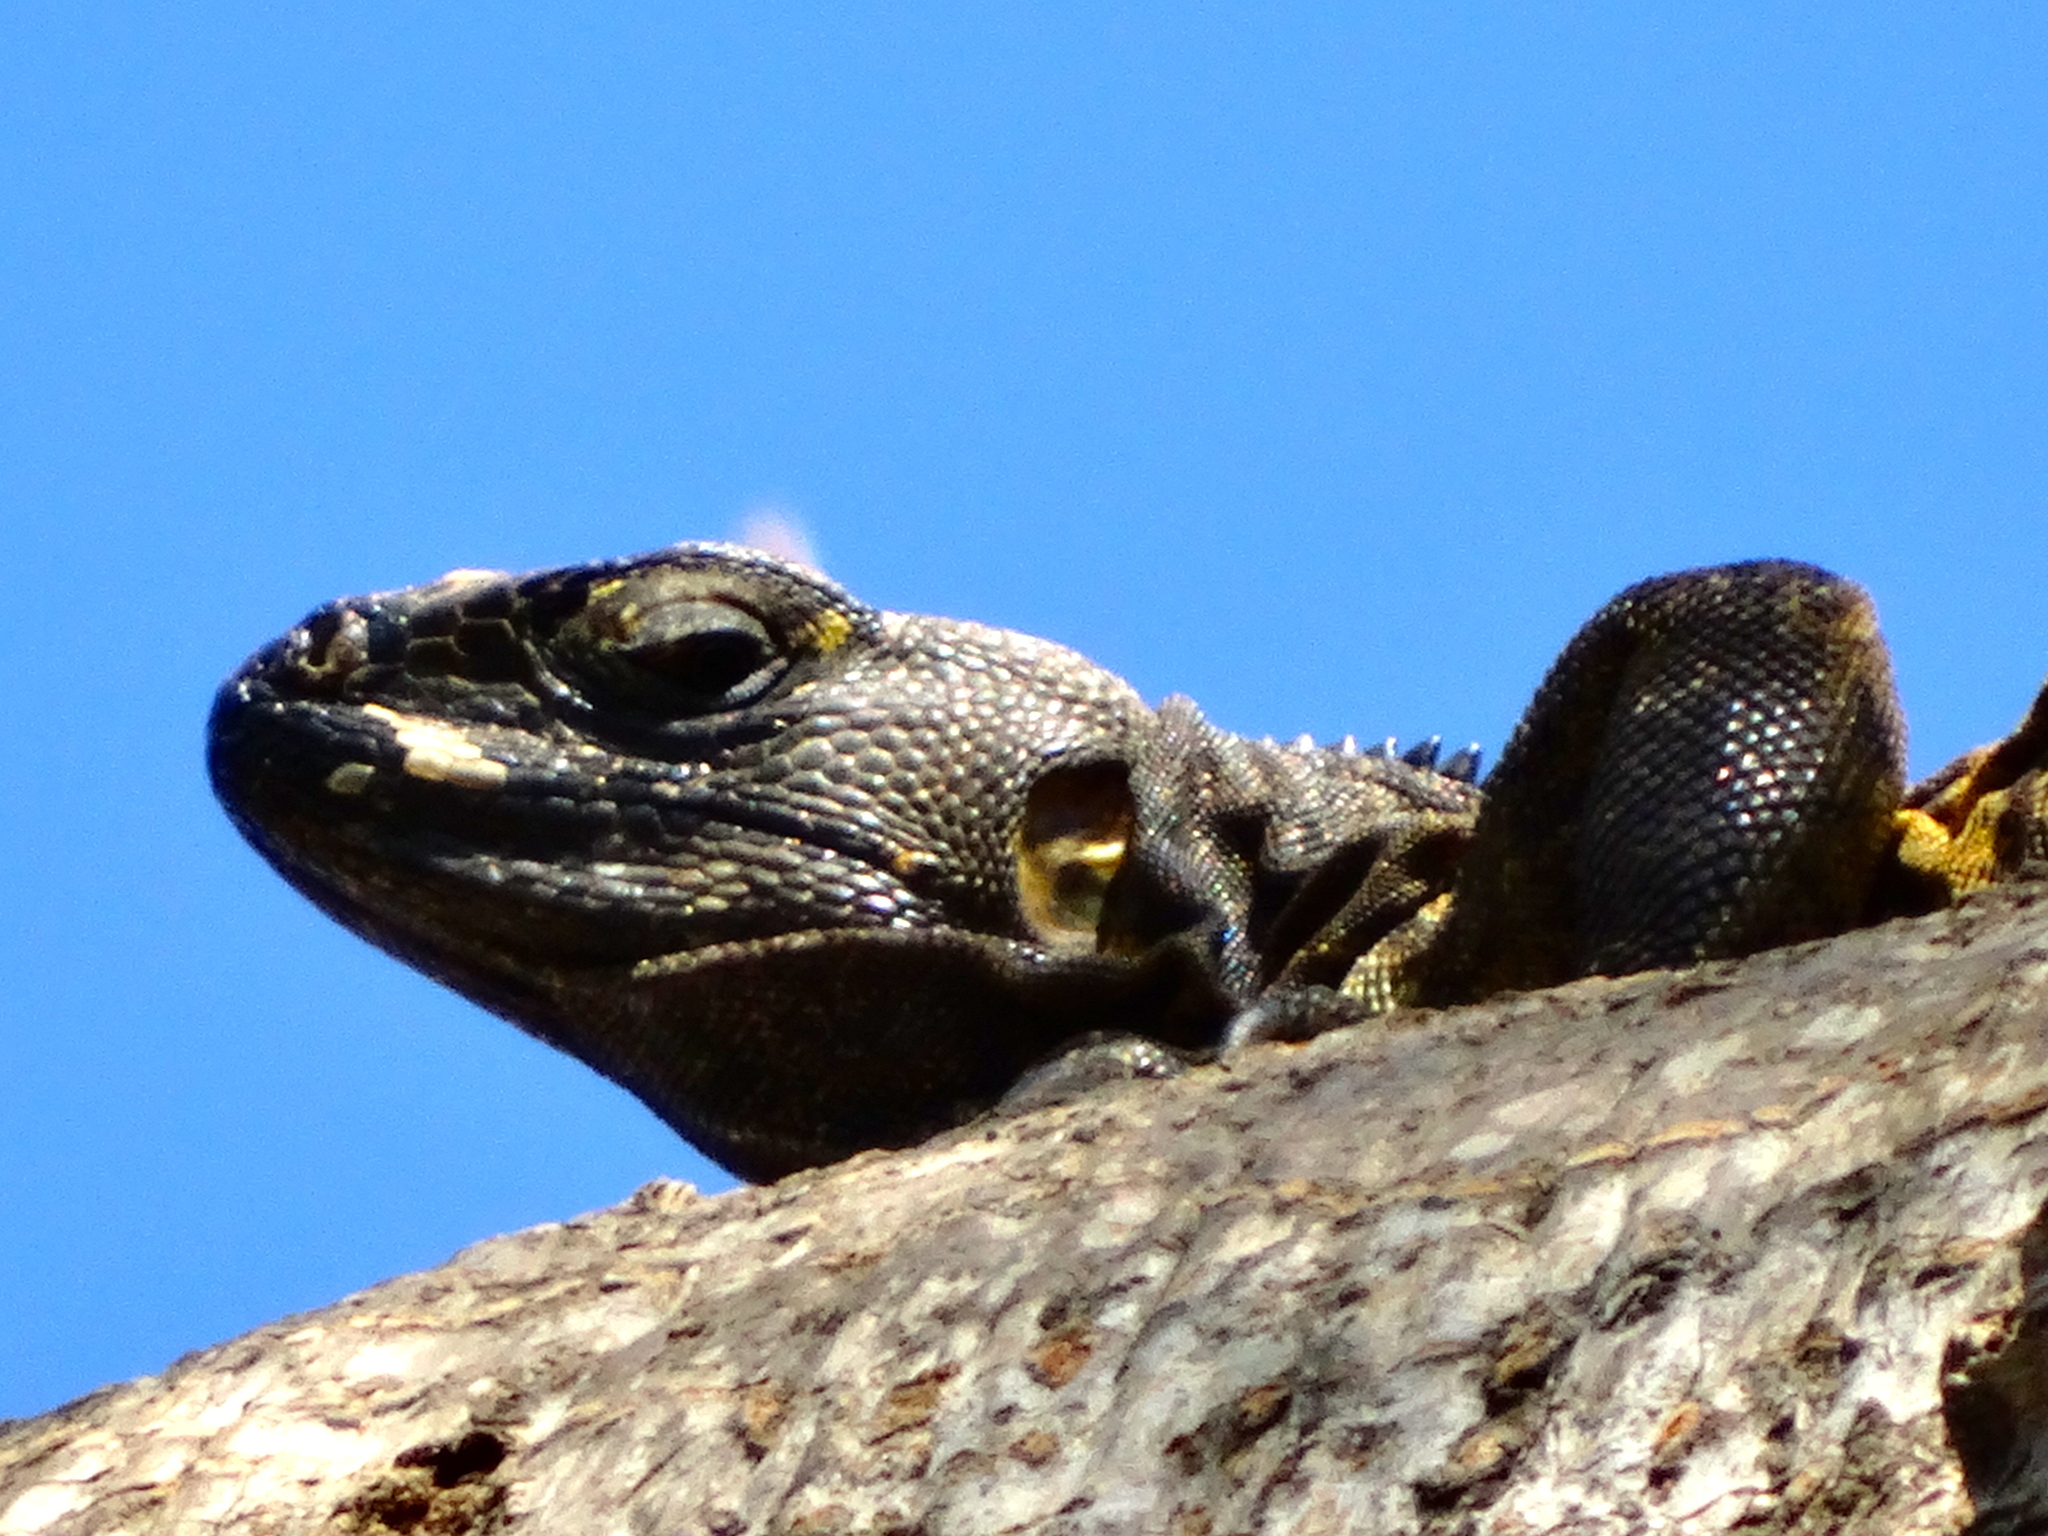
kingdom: Animalia
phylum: Chordata
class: Squamata
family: Iguanidae
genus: Ctenosaura
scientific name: Ctenosaura pectinata
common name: Guerreran spiny-tailed iguana
